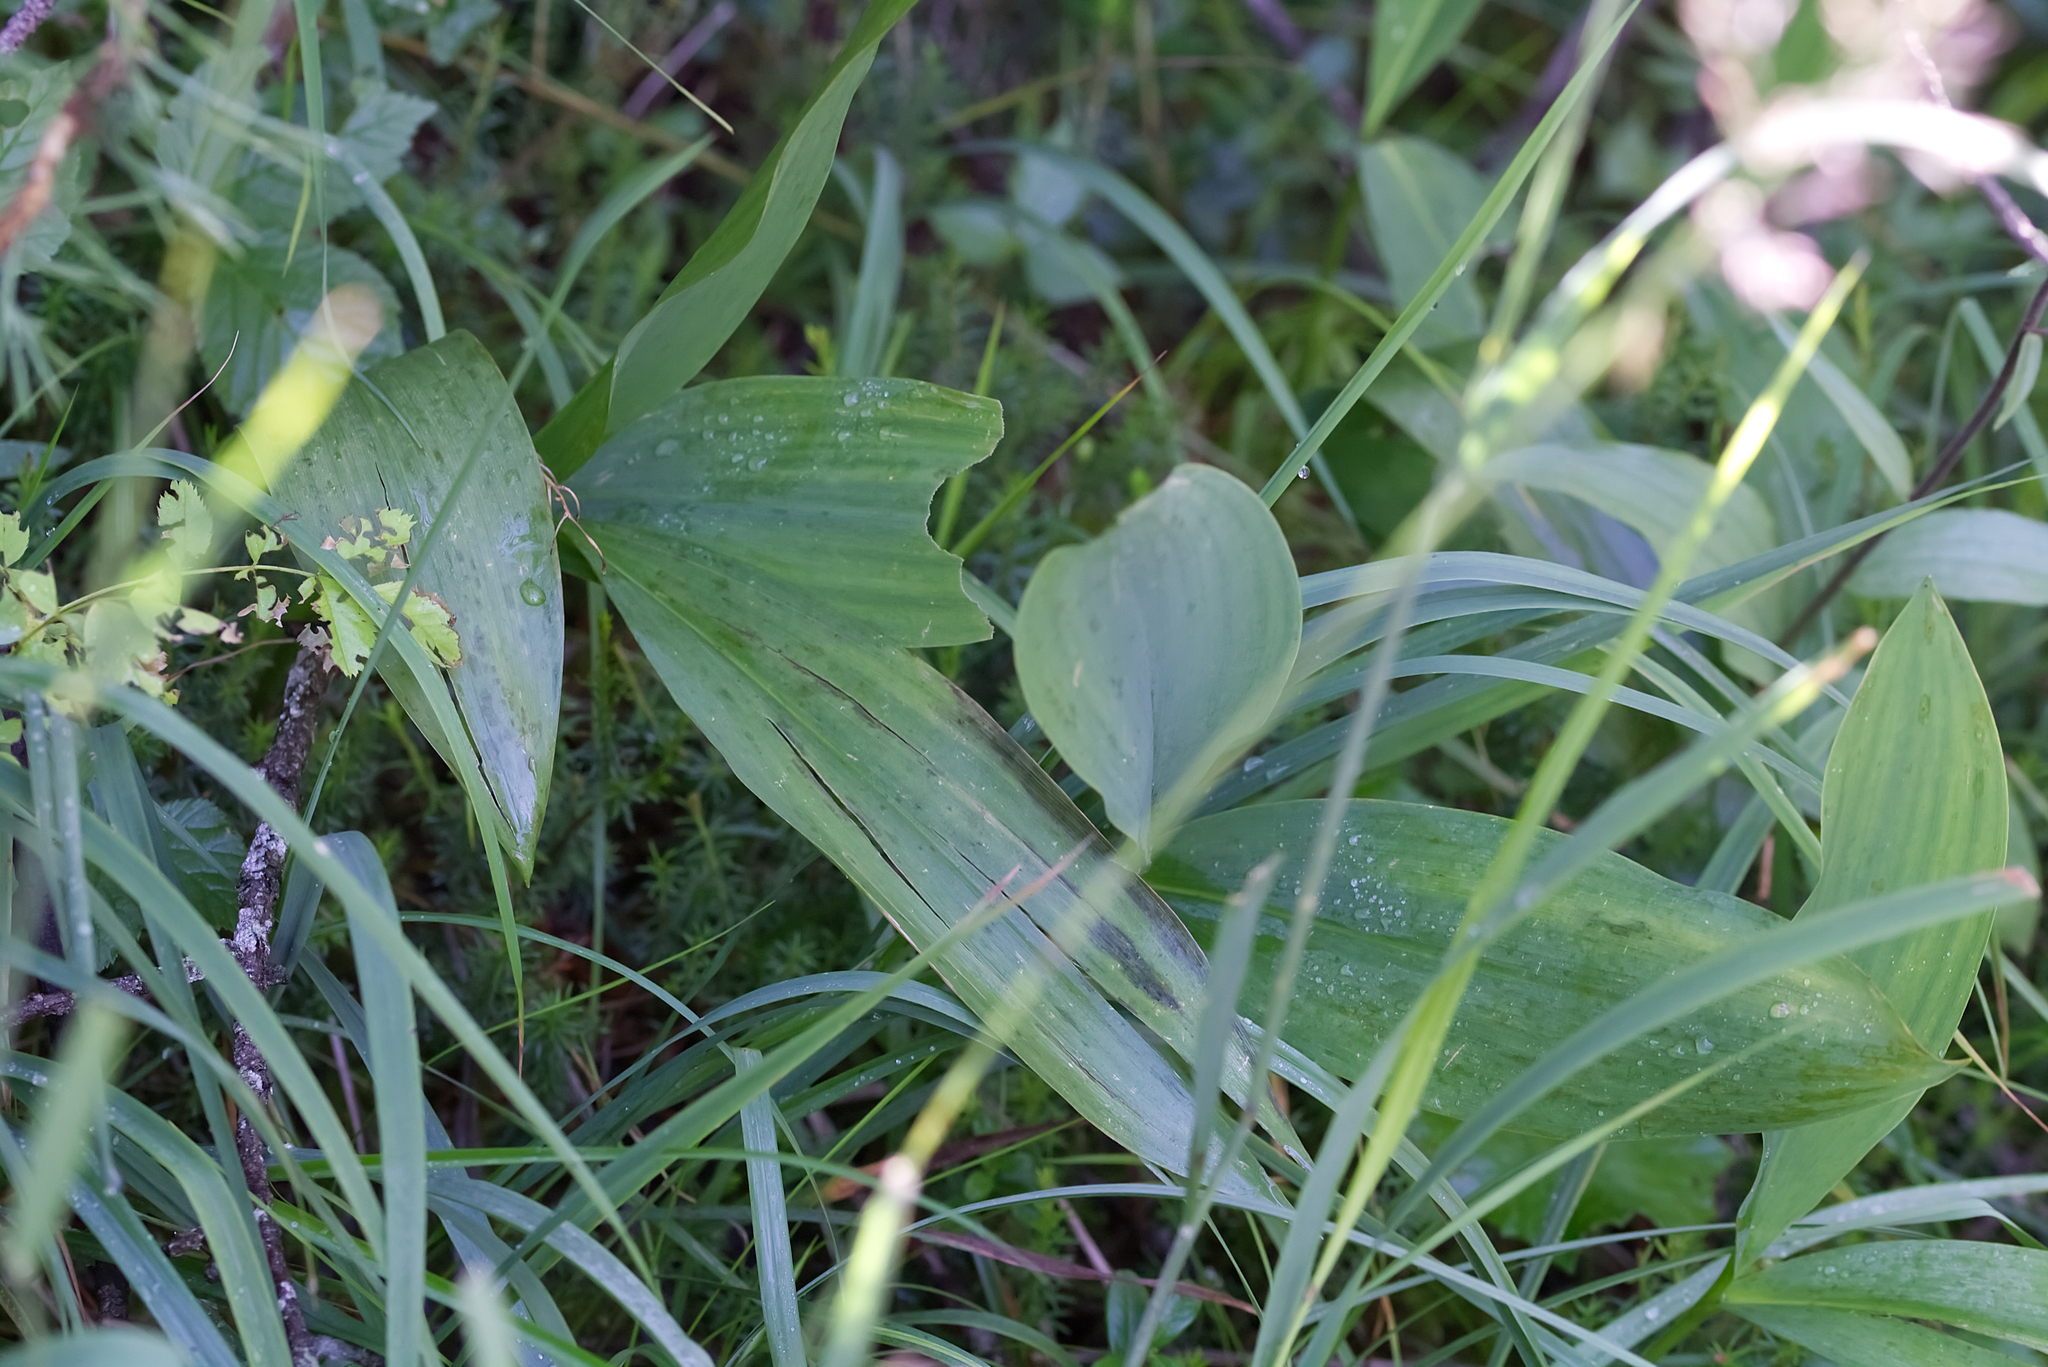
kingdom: Plantae
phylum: Tracheophyta
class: Liliopsida
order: Asparagales
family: Asparagaceae
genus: Convallaria
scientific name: Convallaria majalis
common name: Lily-of-the-valley
